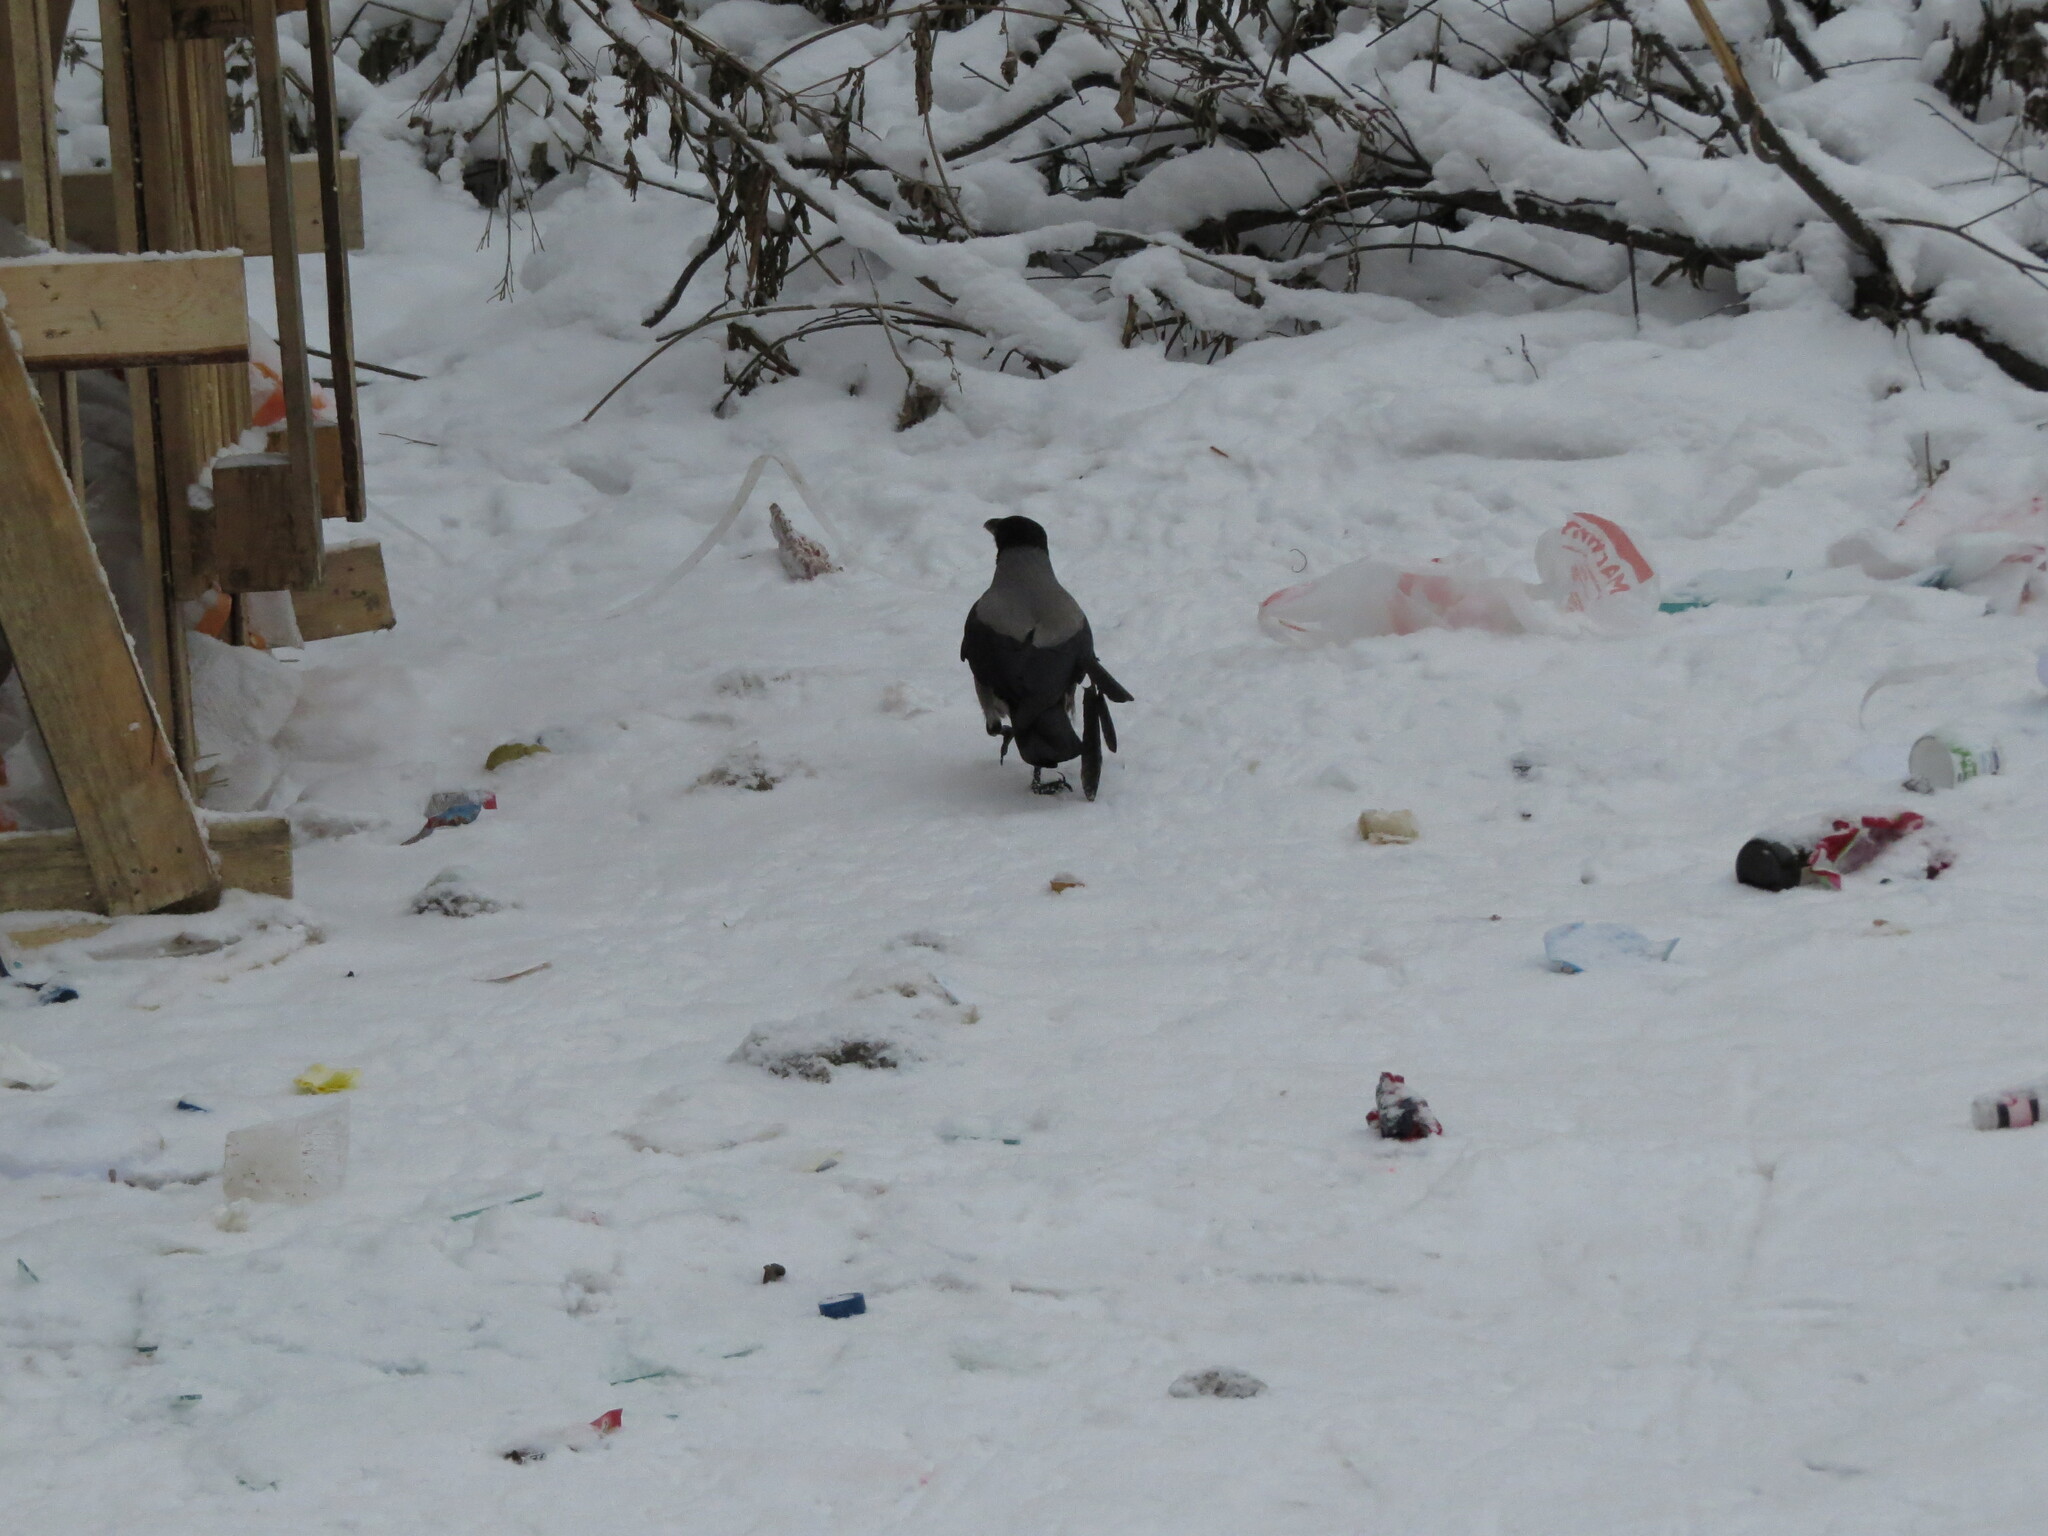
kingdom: Animalia
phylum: Chordata
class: Aves
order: Passeriformes
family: Corvidae
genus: Corvus
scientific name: Corvus cornix
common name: Hooded crow
